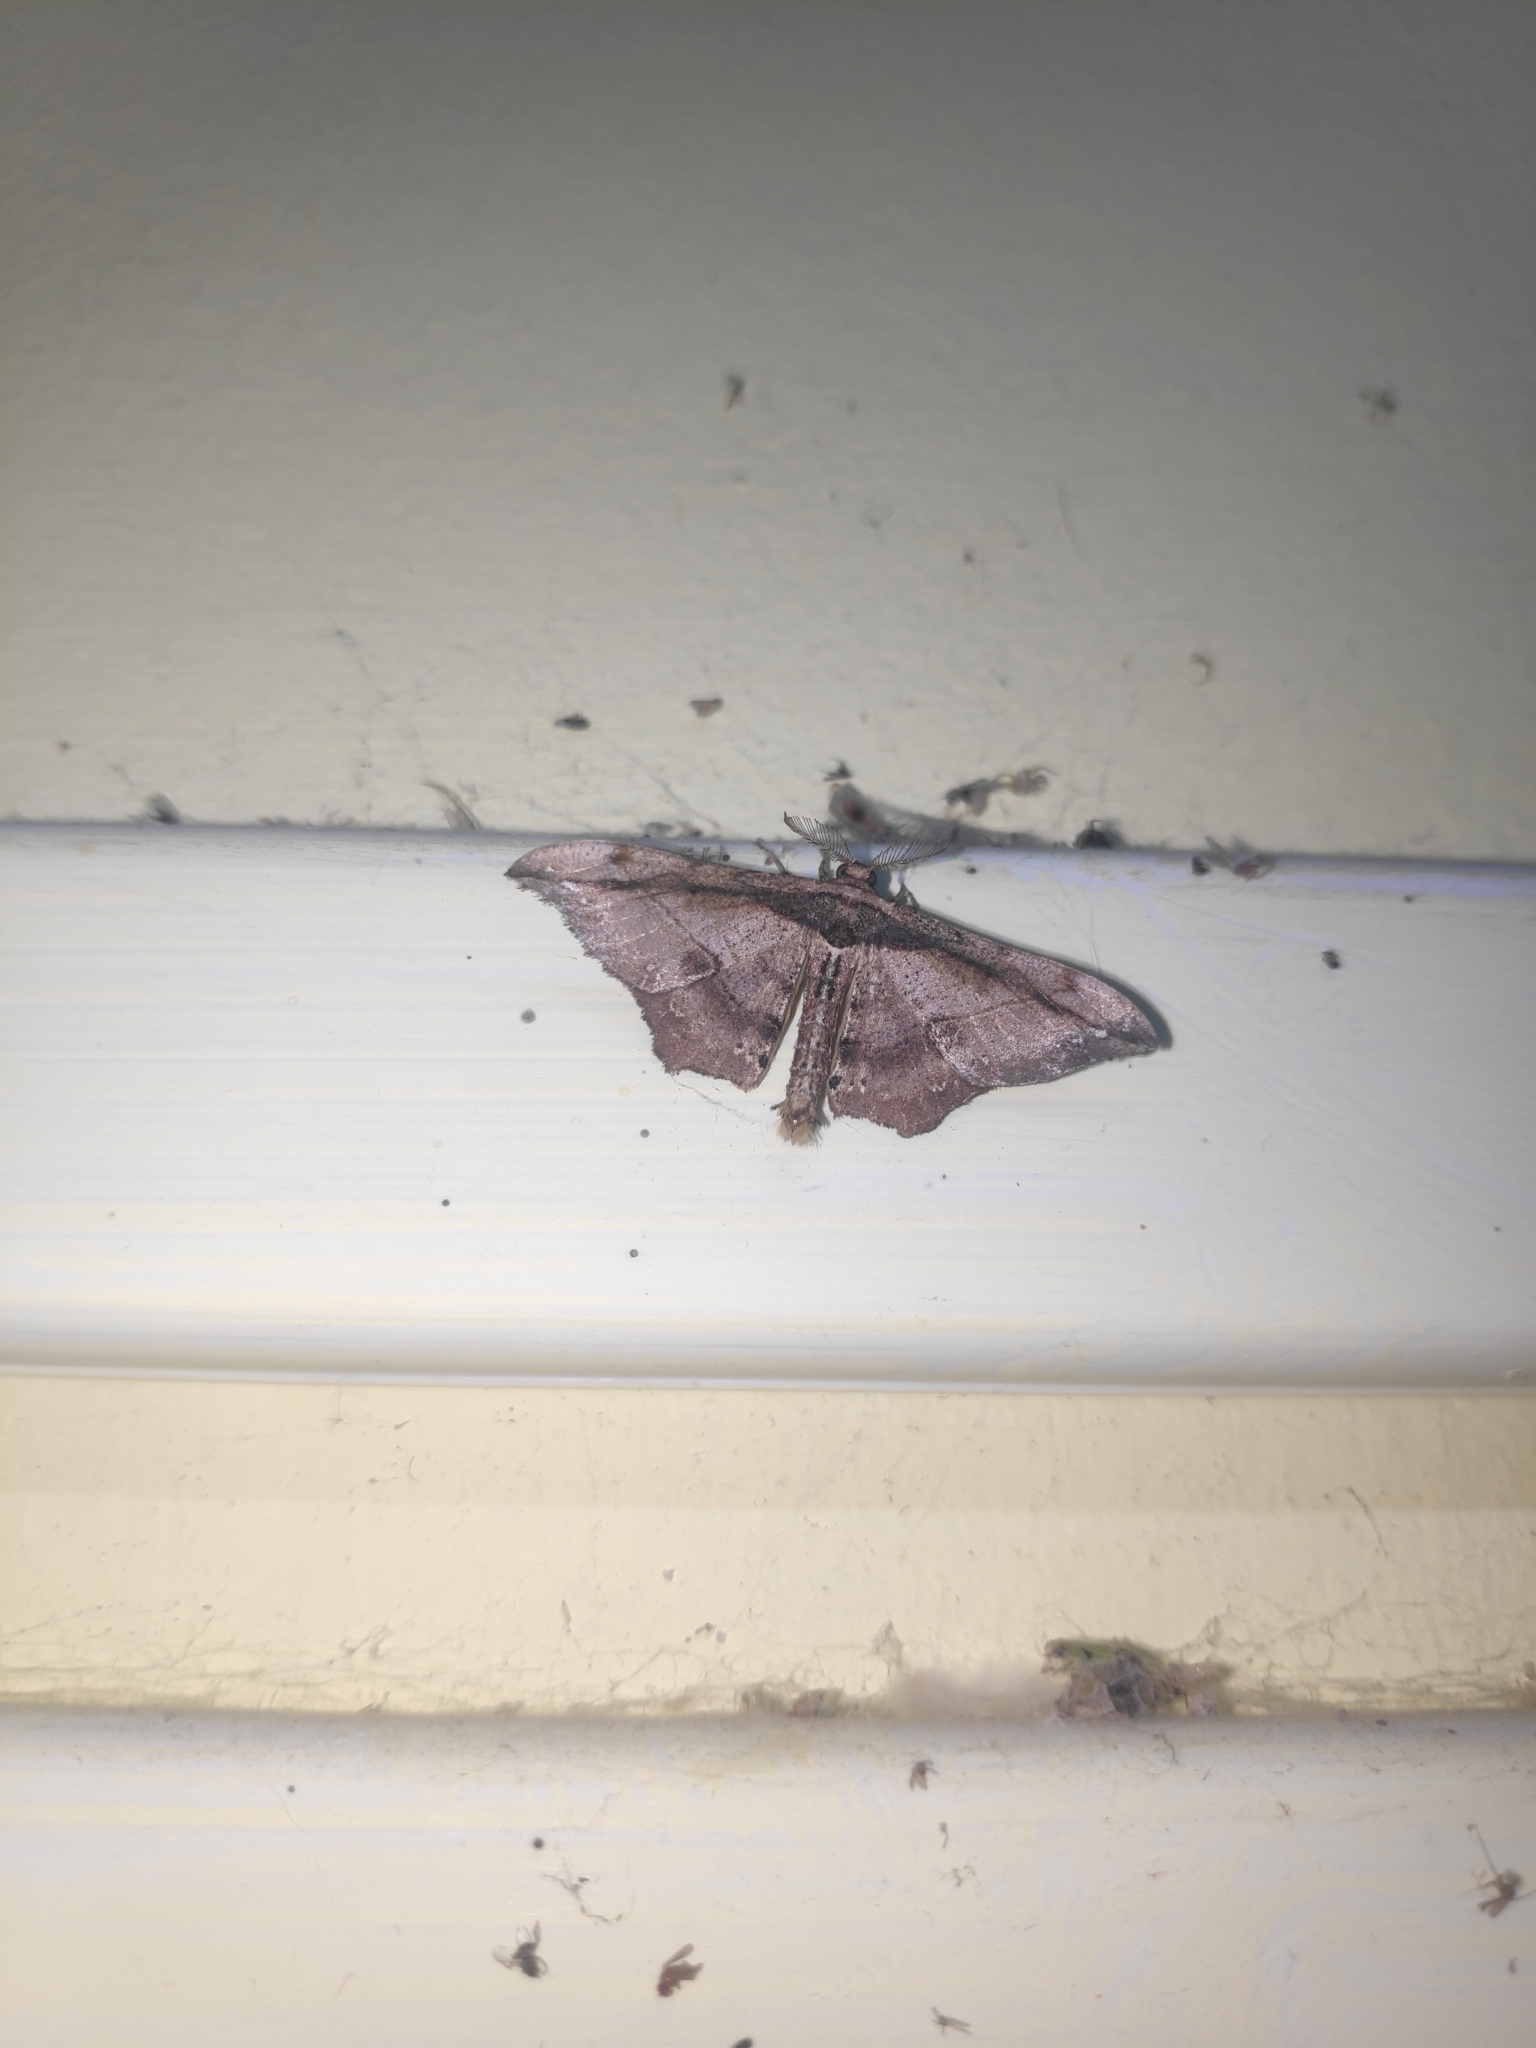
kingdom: Animalia
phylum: Arthropoda
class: Insecta
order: Lepidoptera
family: Geometridae
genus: Hyposidra
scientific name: Hyposidra infixaria
